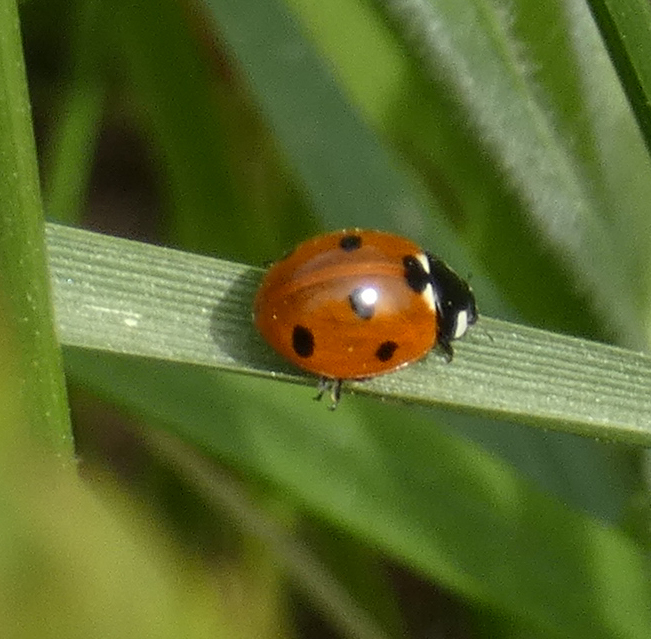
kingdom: Animalia
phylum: Arthropoda
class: Insecta
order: Coleoptera
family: Coccinellidae
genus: Coccinella
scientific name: Coccinella septempunctata
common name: Sevenspotted lady beetle
